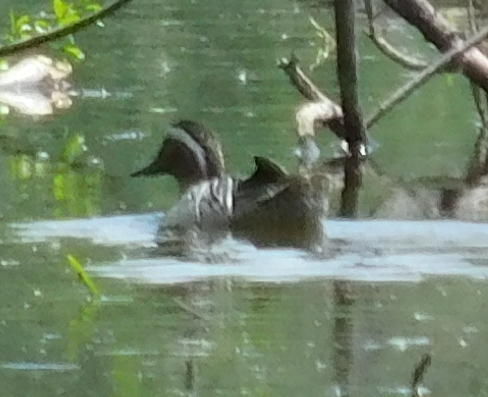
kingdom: Animalia
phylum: Chordata
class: Aves
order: Anseriformes
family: Anatidae
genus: Spatula
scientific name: Spatula querquedula
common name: Garganey
